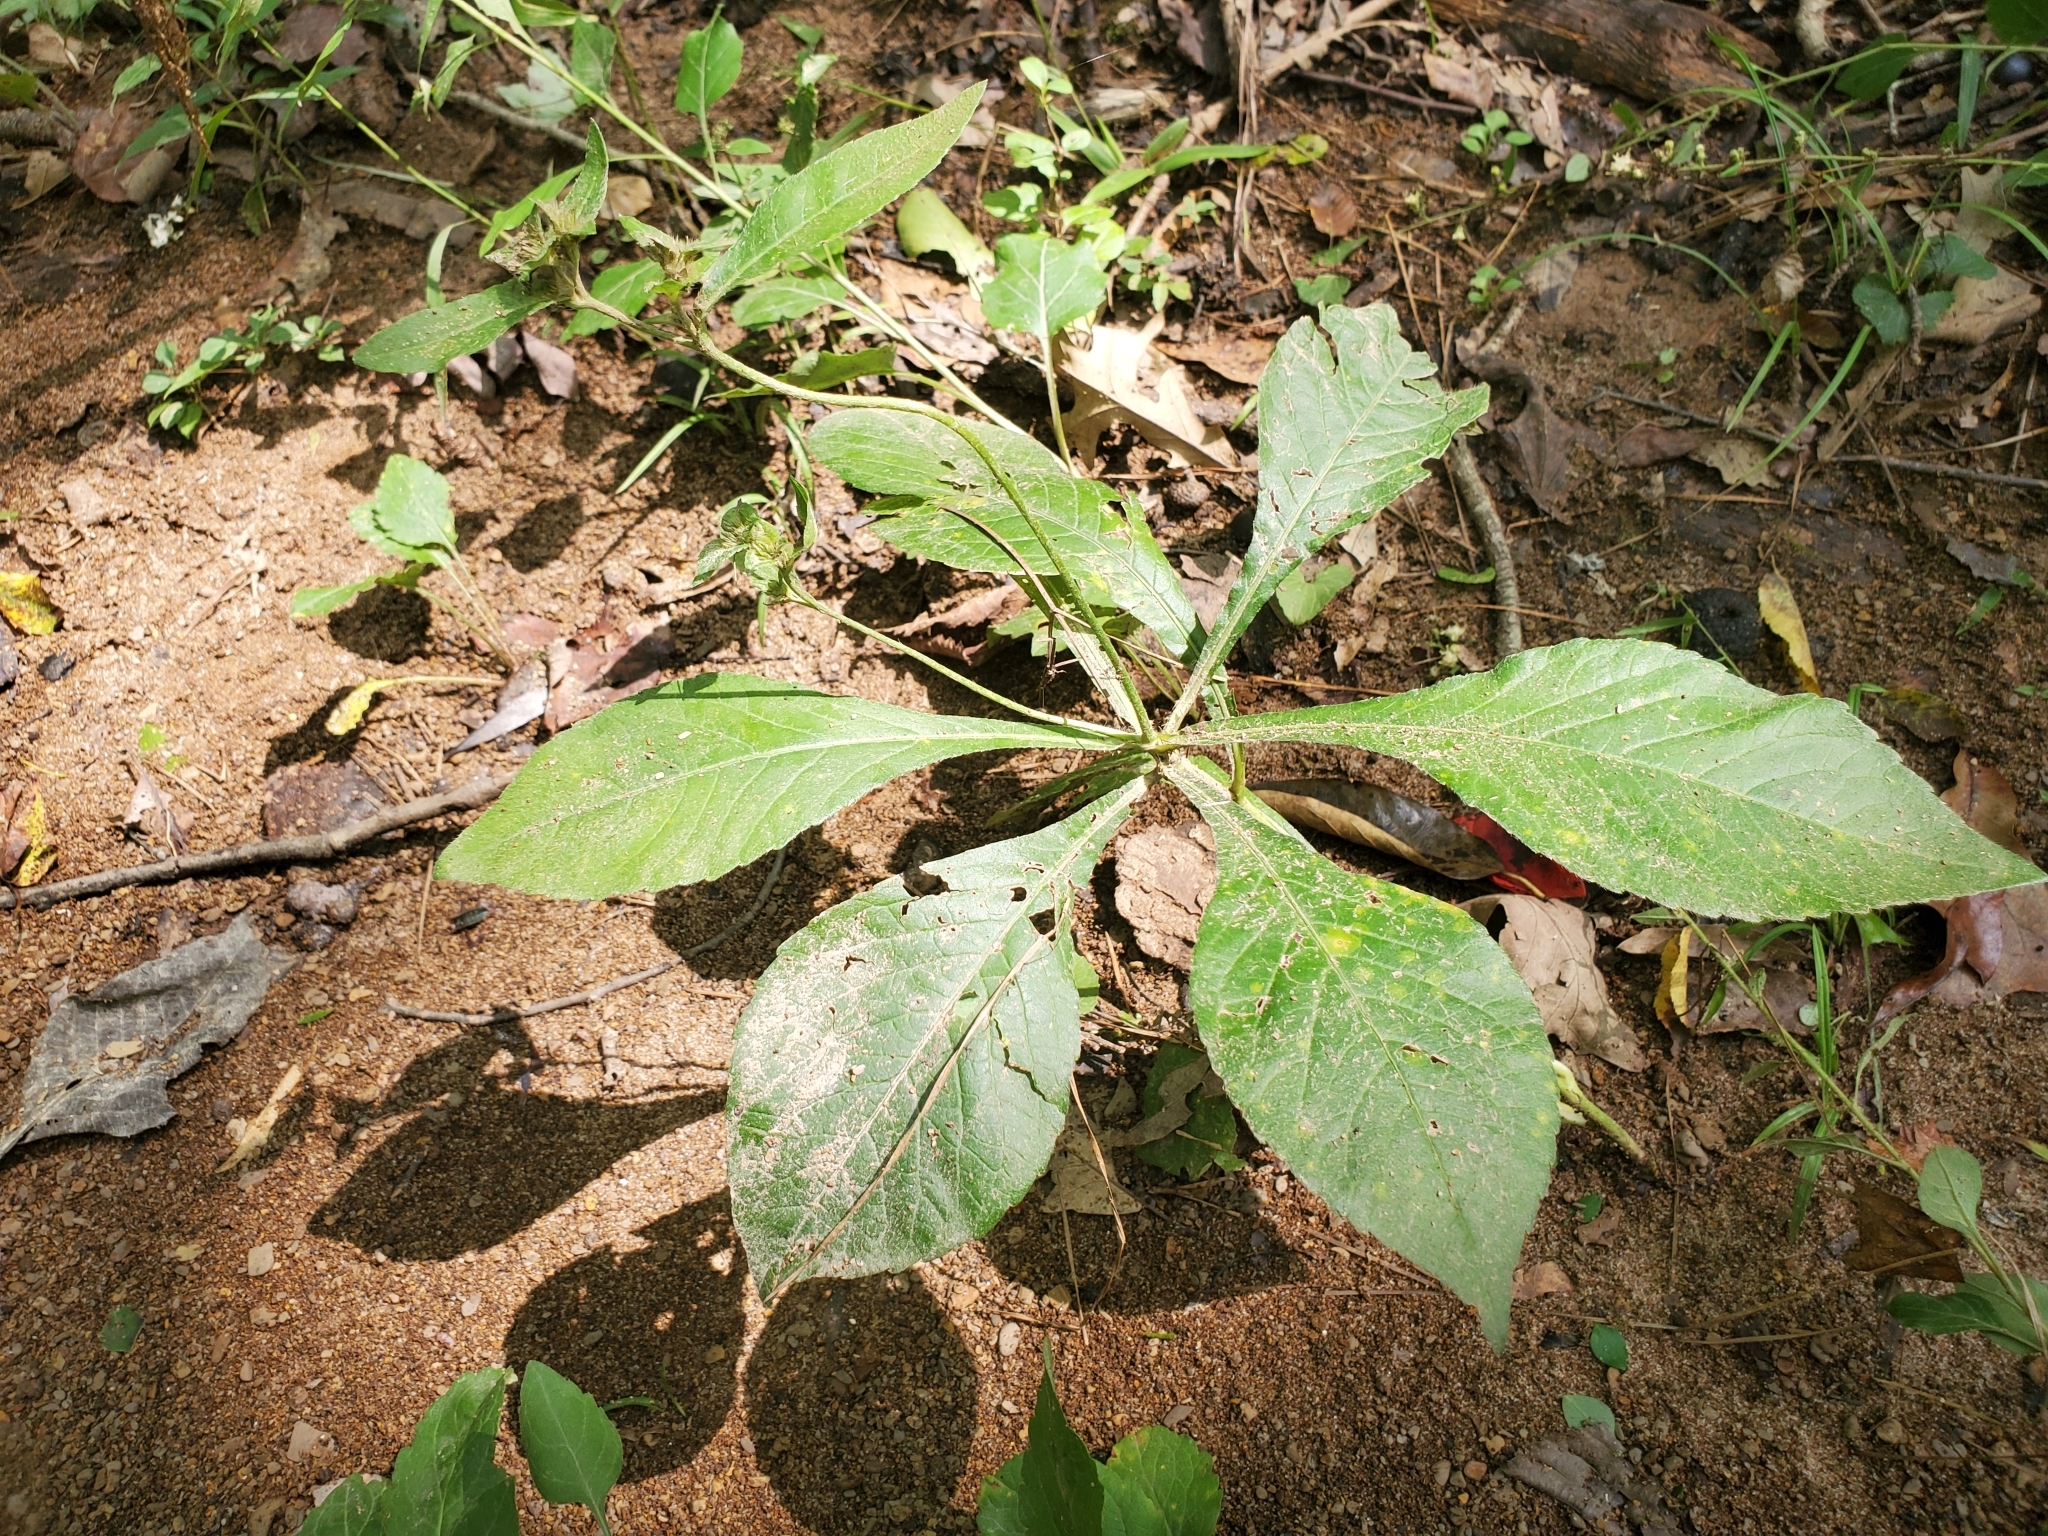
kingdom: Plantae
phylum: Tracheophyta
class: Magnoliopsida
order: Asterales
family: Asteraceae
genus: Elephantopus
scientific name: Elephantopus carolinianus
